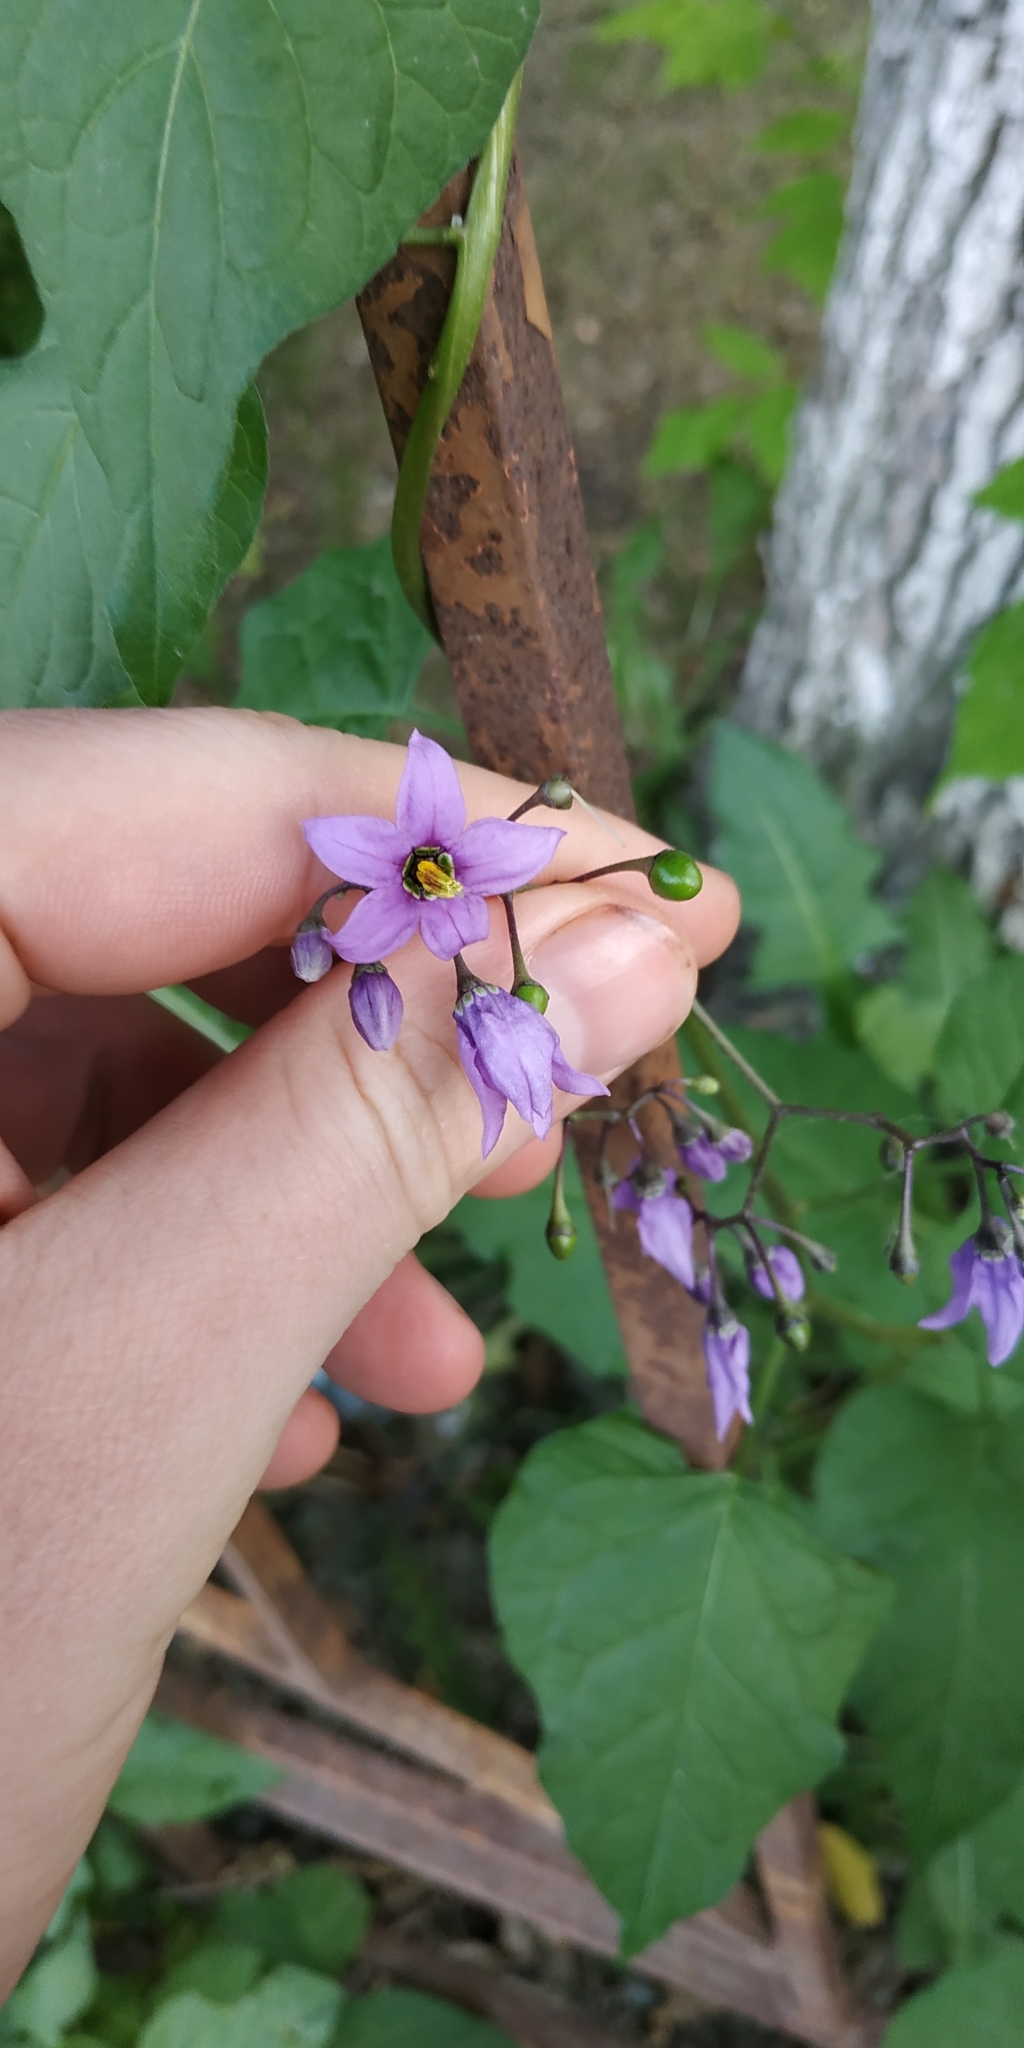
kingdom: Plantae
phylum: Tracheophyta
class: Magnoliopsida
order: Solanales
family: Solanaceae
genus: Solanum
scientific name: Solanum dulcamara
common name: Climbing nightshade
